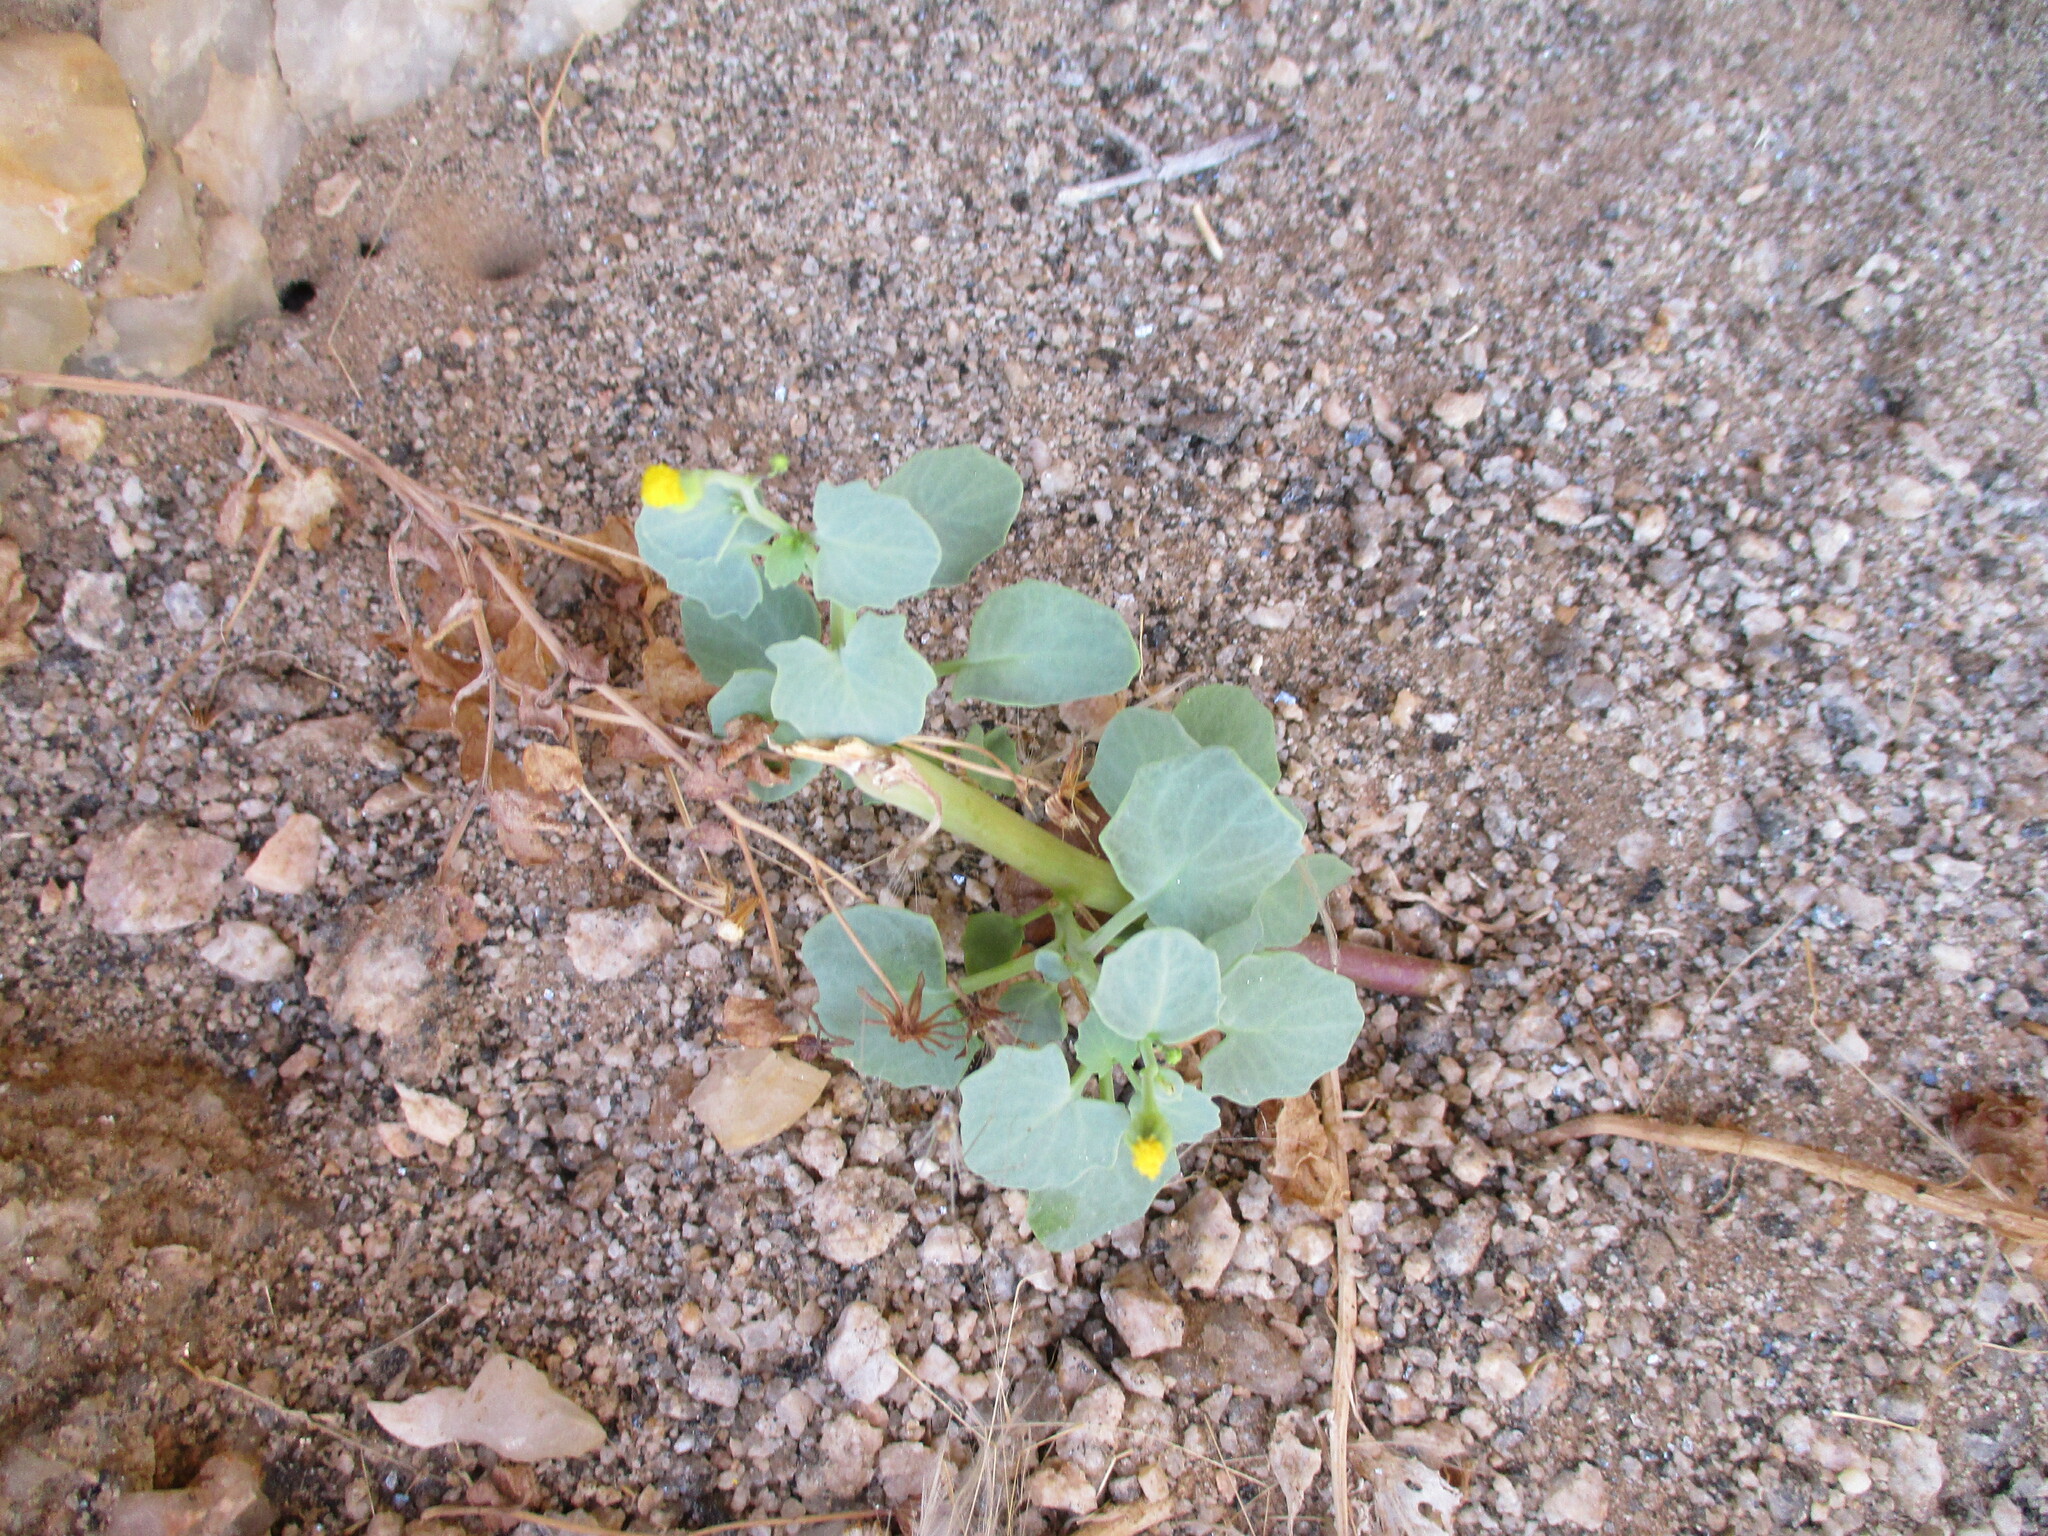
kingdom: Plantae
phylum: Tracheophyta
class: Magnoliopsida
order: Asterales
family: Asteraceae
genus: Senecio
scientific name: Senecio engleranus
